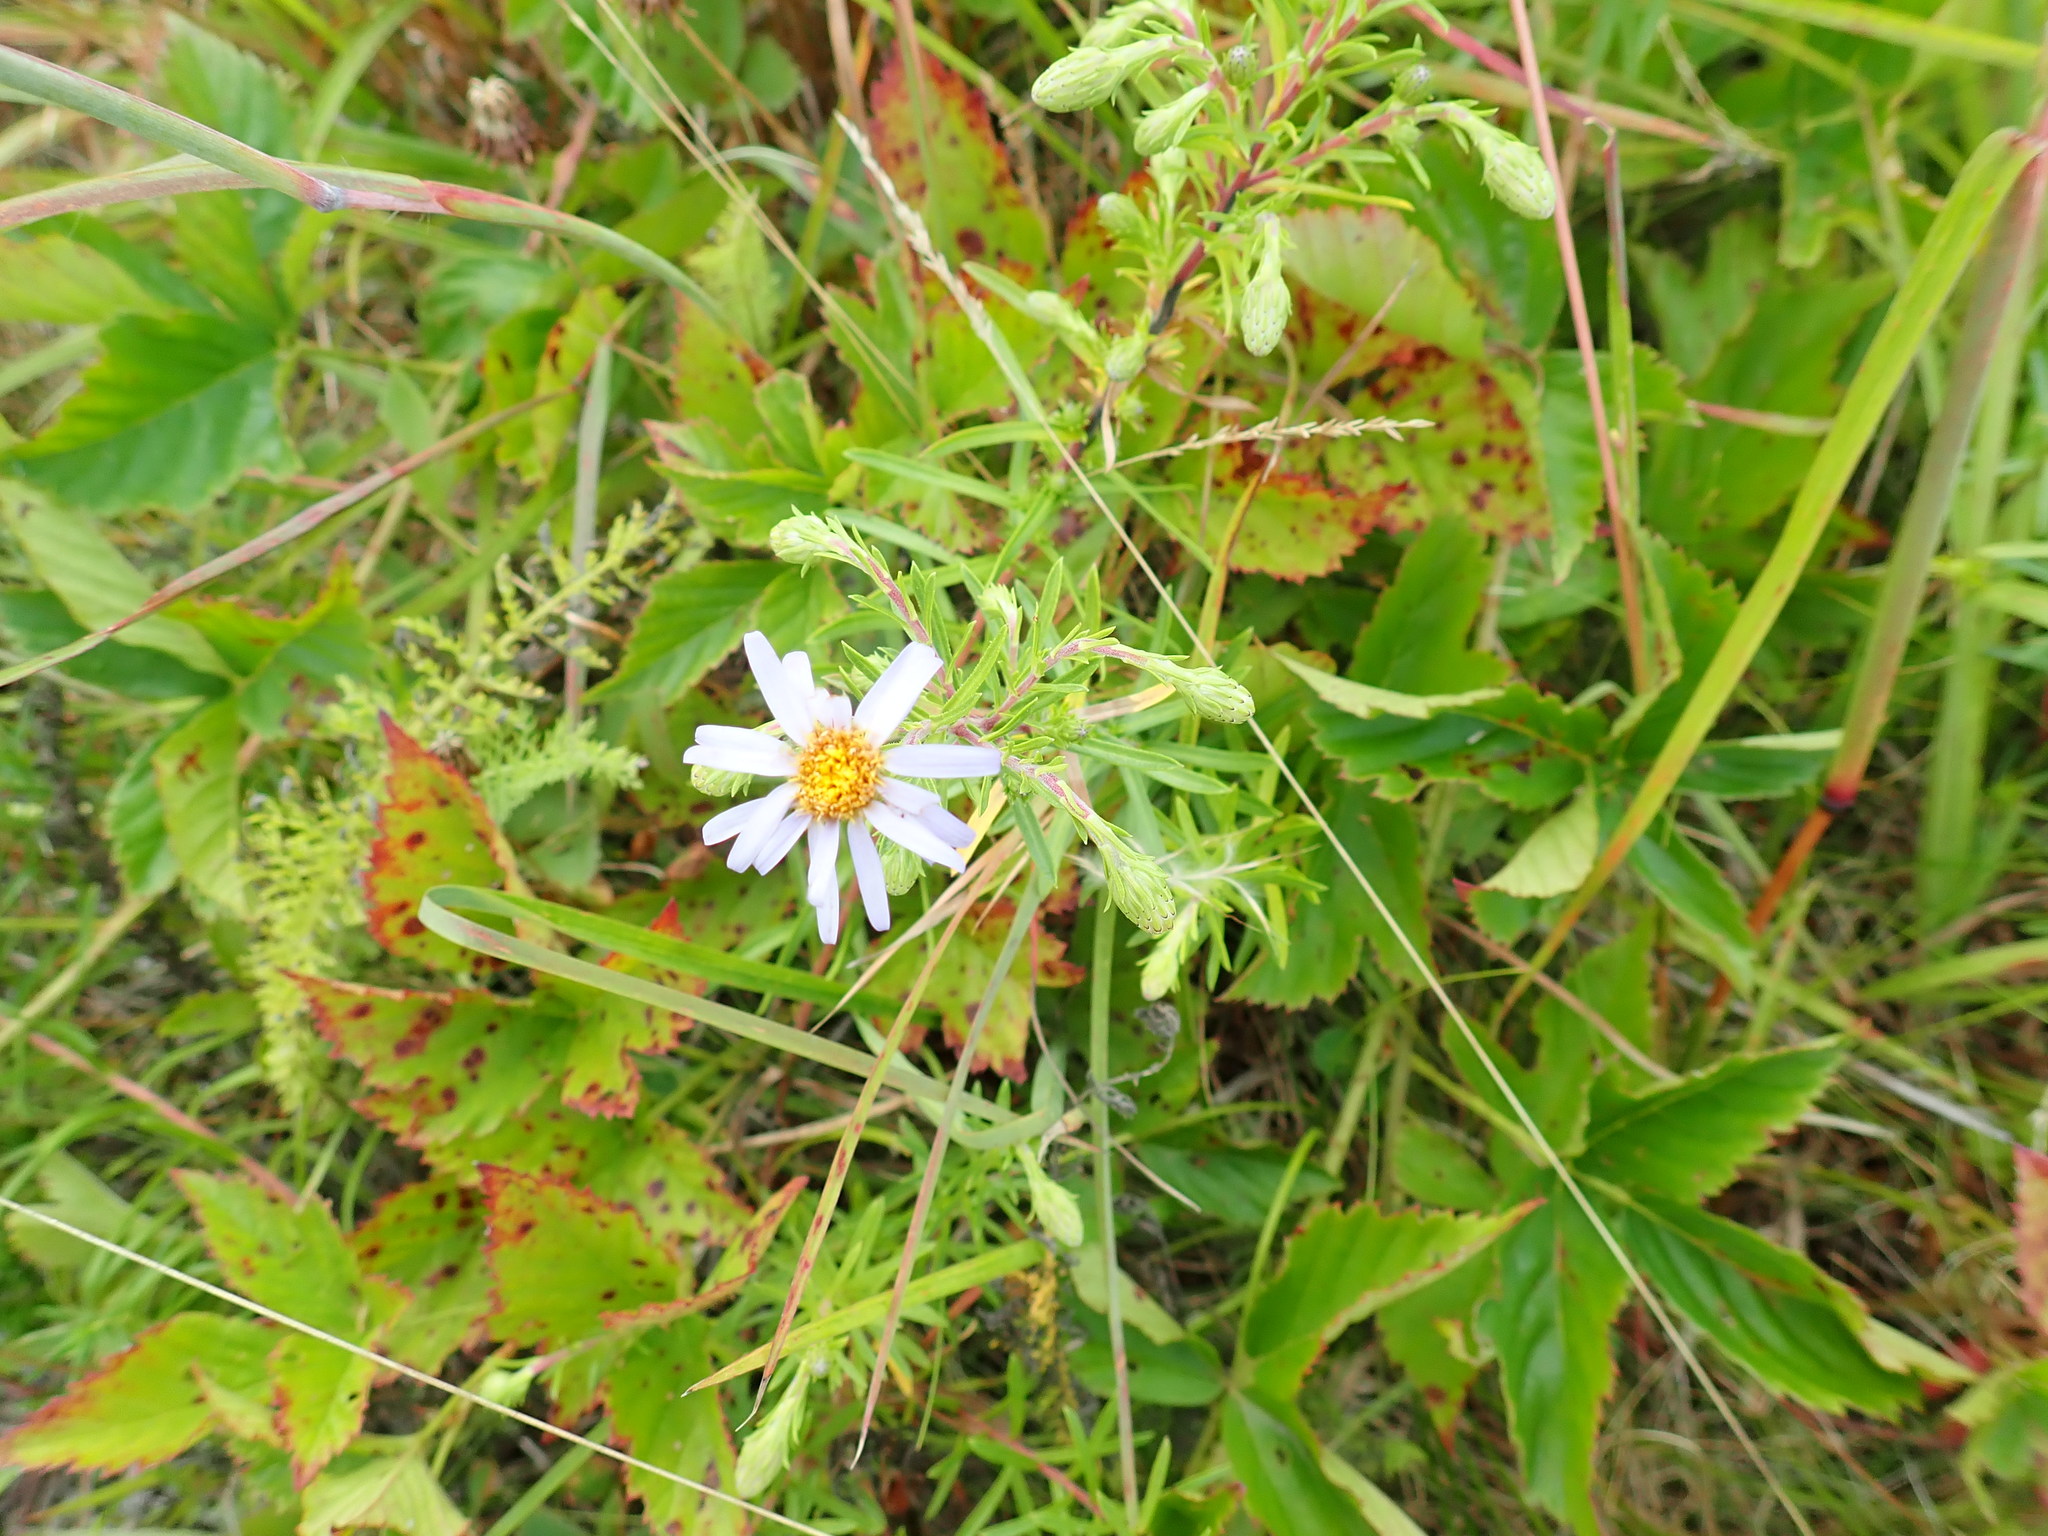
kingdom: Plantae
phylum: Tracheophyta
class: Magnoliopsida
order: Asterales
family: Asteraceae
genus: Ionactis
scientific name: Ionactis linariifolia
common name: Flax-leaf aster
